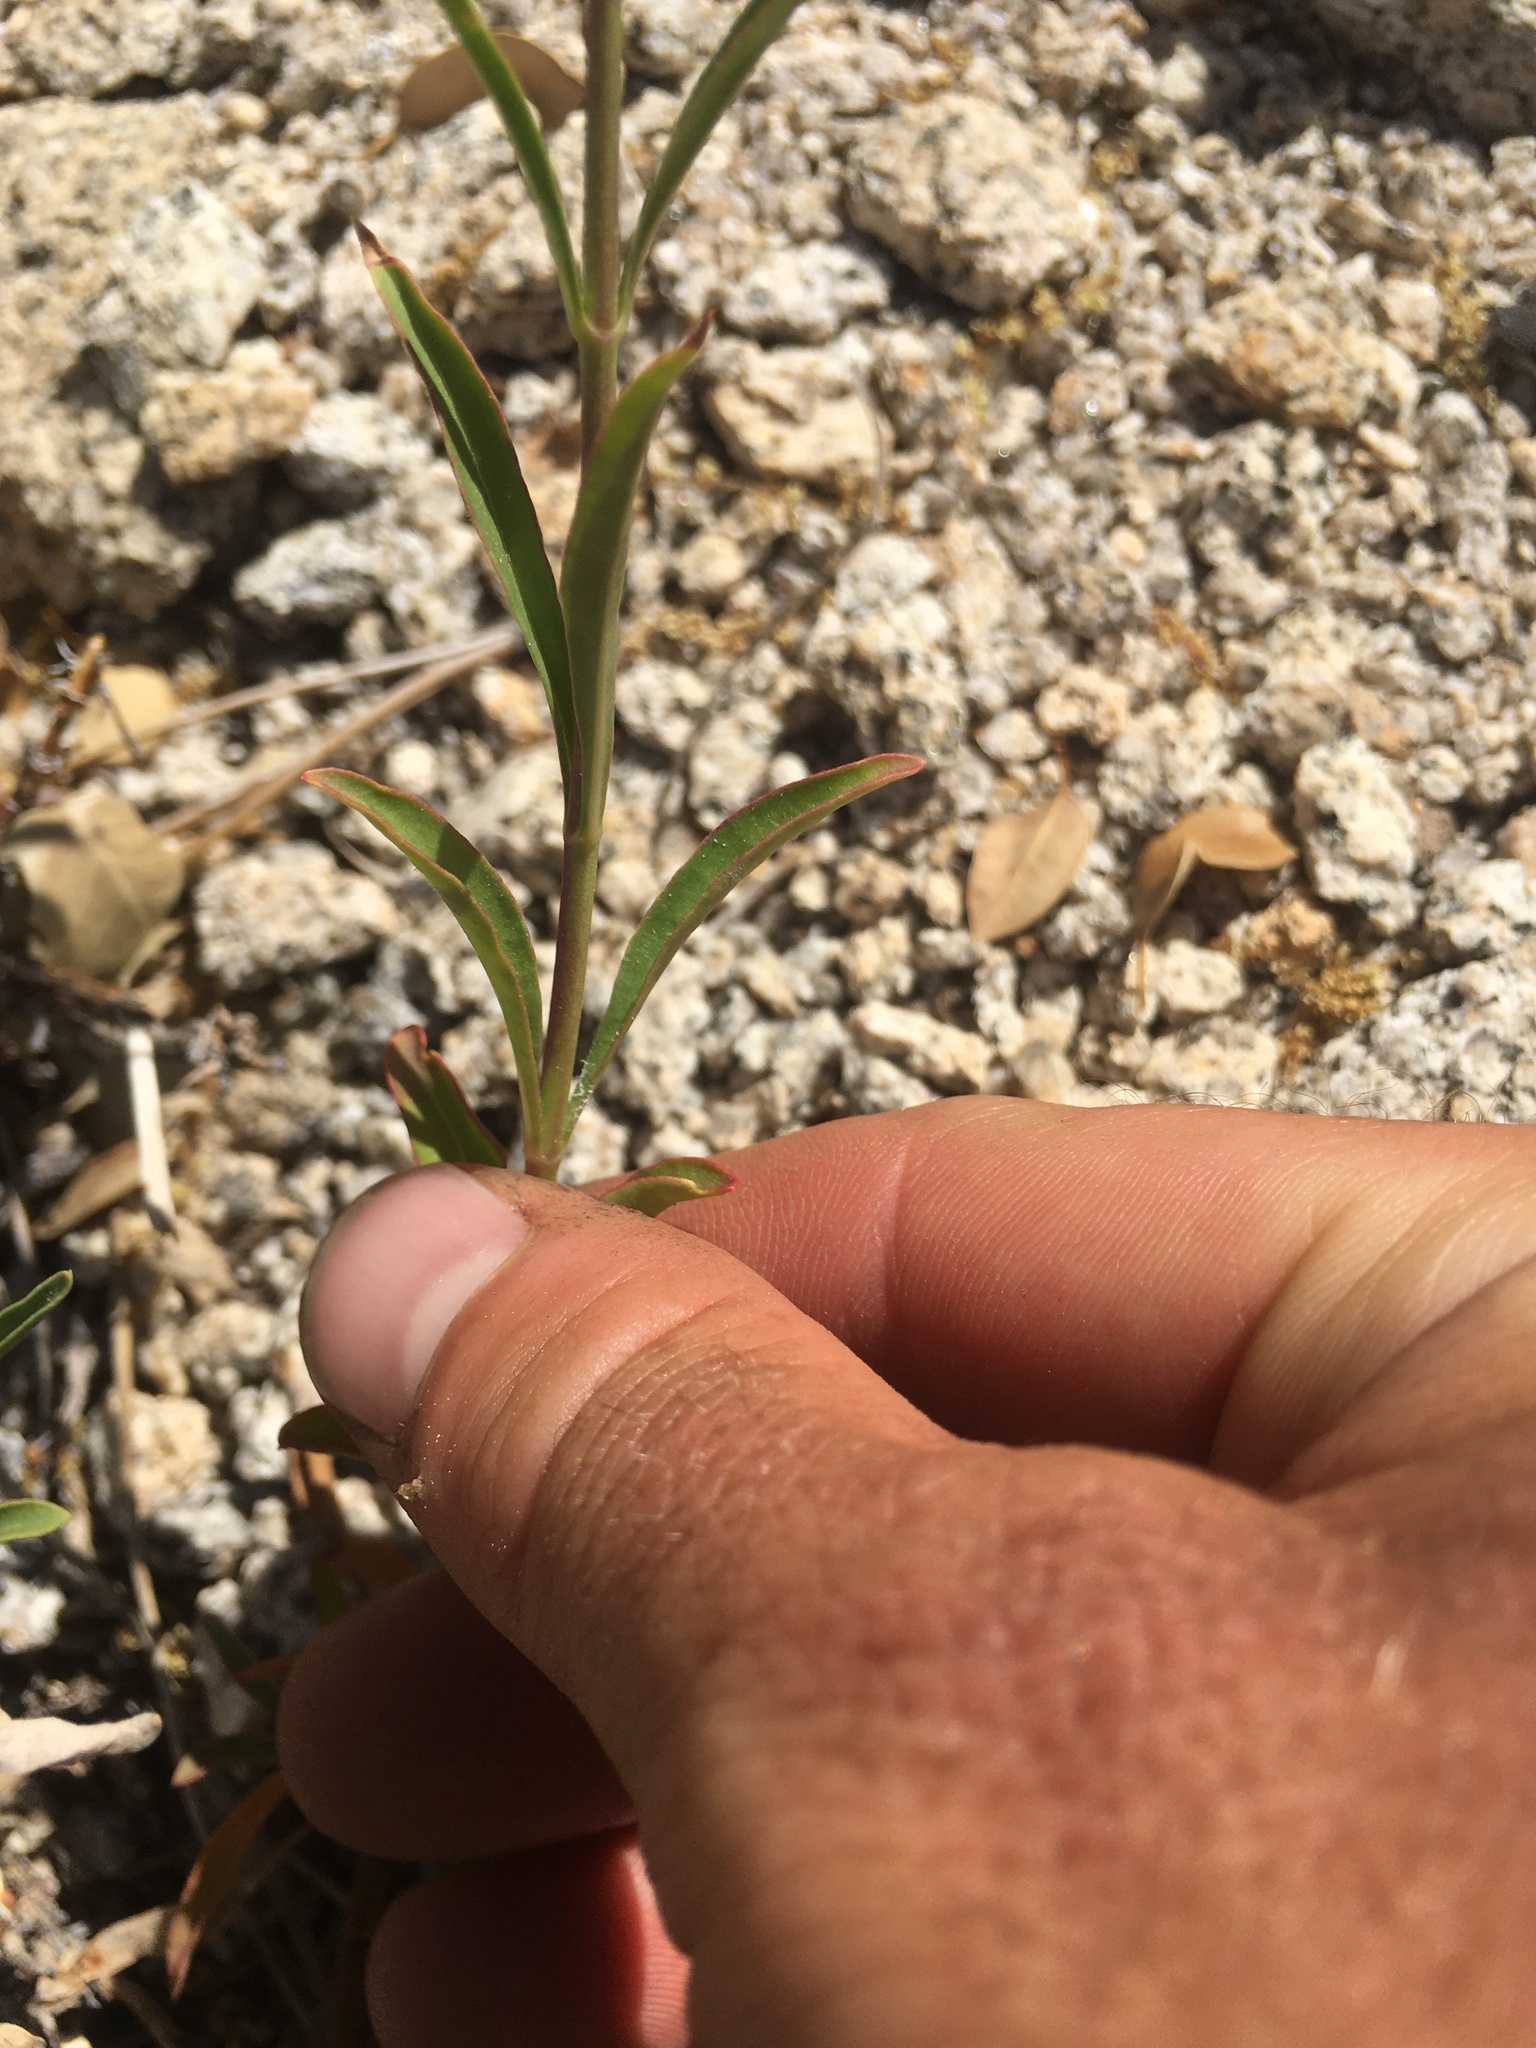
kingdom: Plantae
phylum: Tracheophyta
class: Magnoliopsida
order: Lamiales
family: Plantaginaceae
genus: Penstemon
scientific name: Penstemon rostriflorus
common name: Bridges's penstemon
